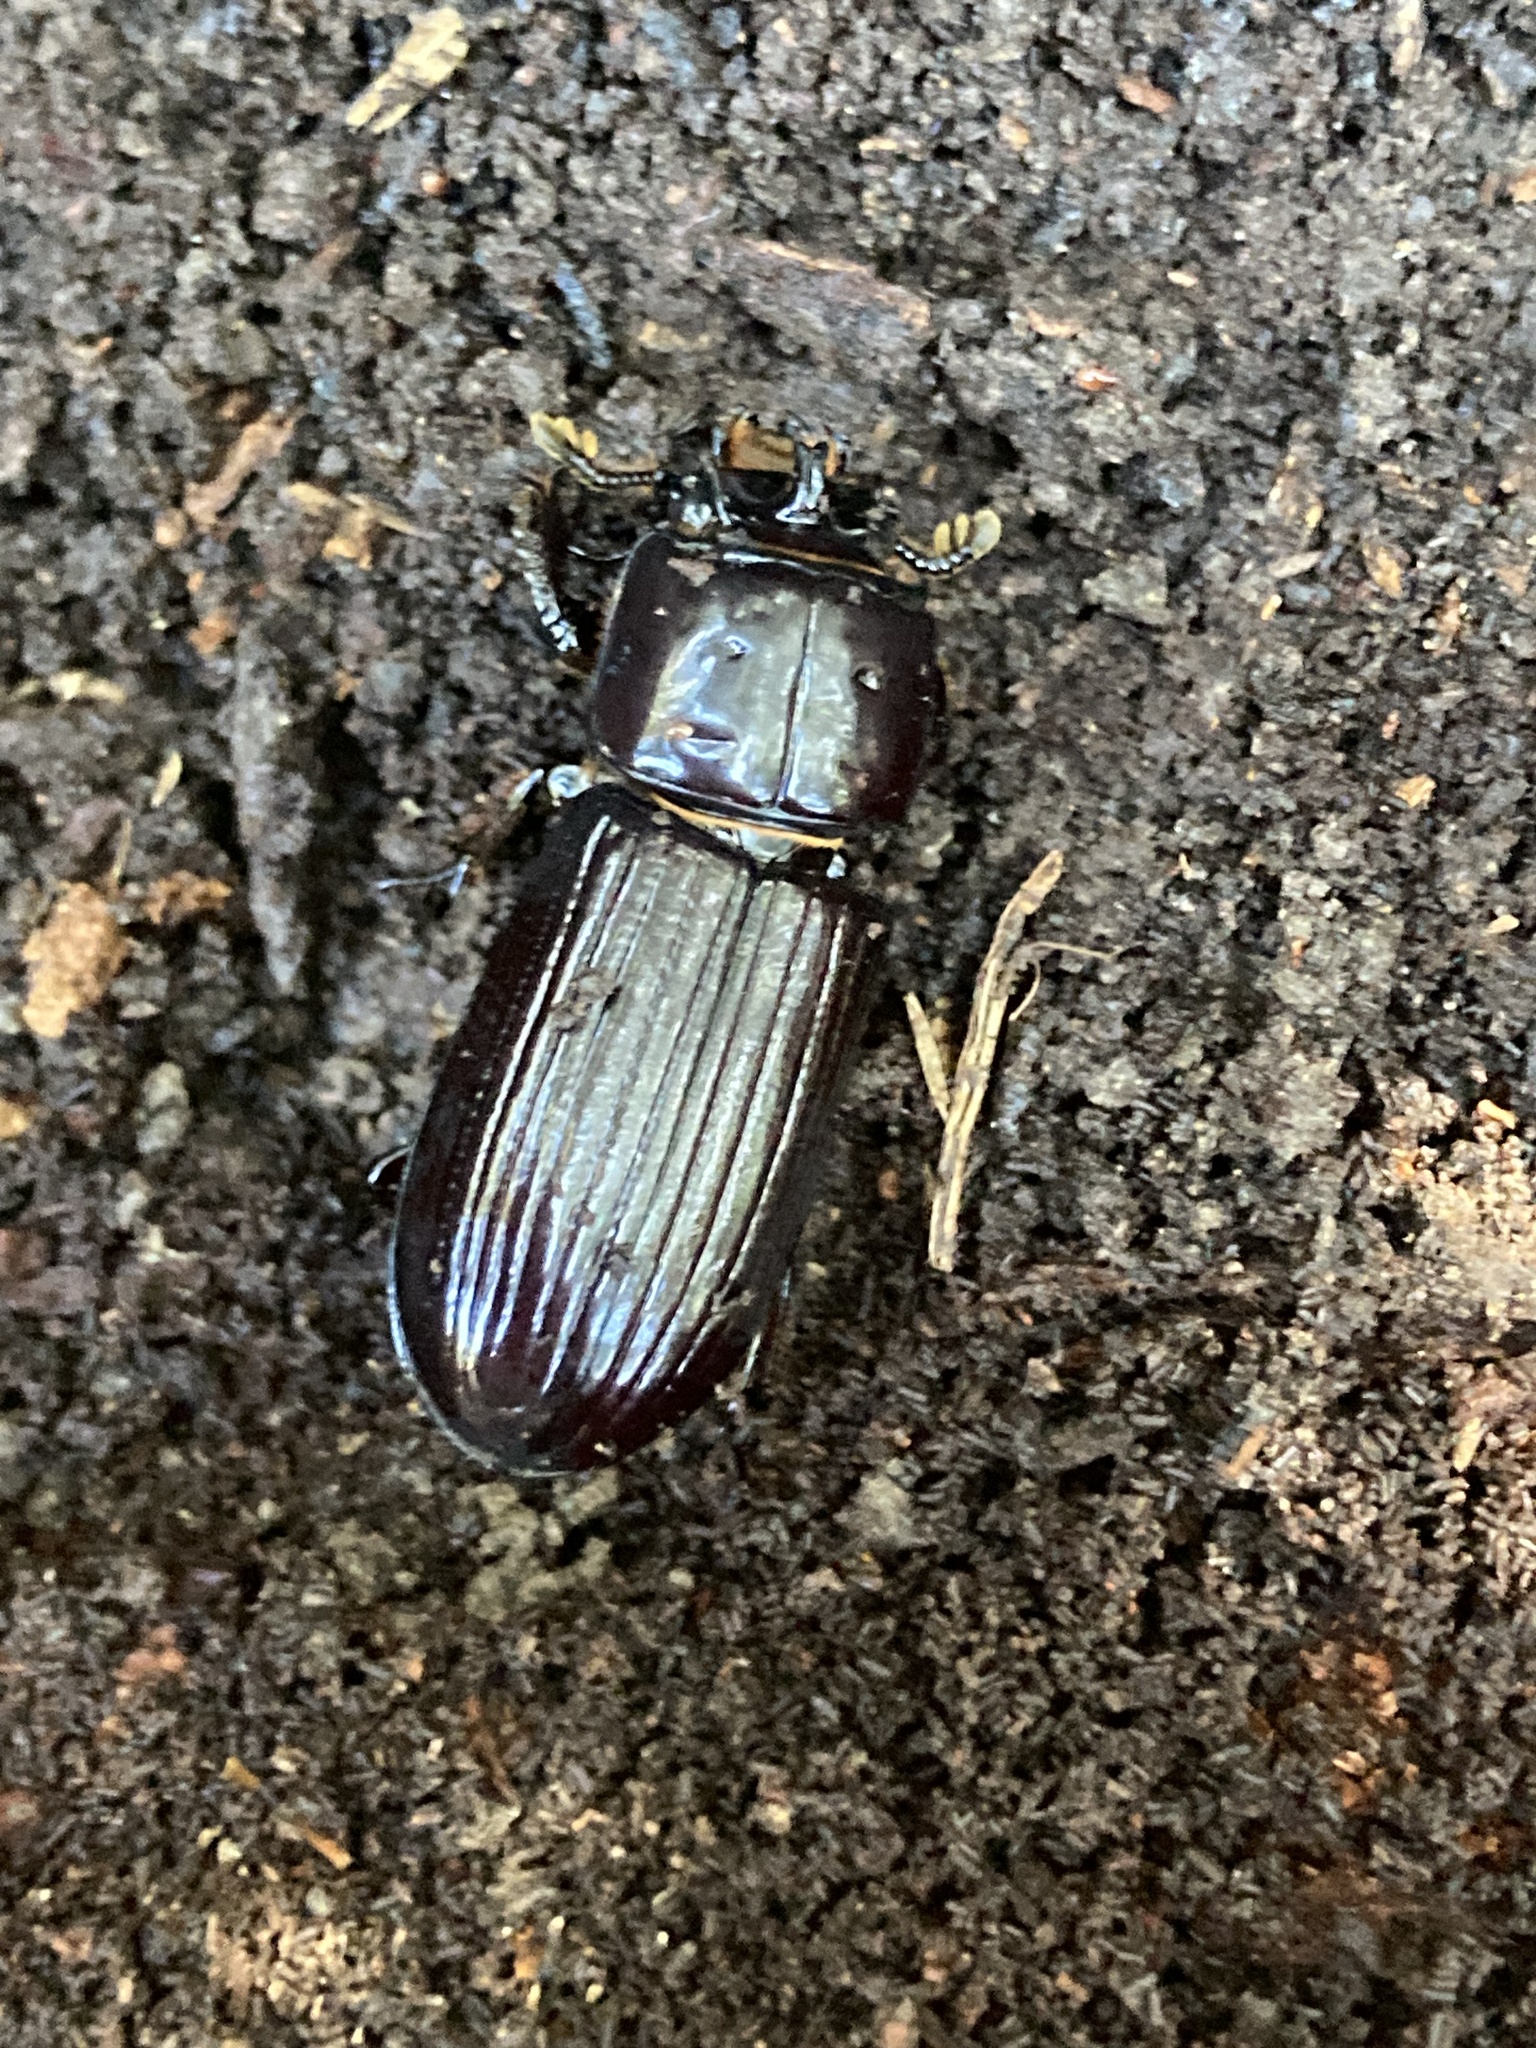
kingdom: Animalia
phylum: Arthropoda
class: Insecta
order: Coleoptera
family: Passalidae
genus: Aulacocyclus
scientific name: Aulacocyclus edentulus
